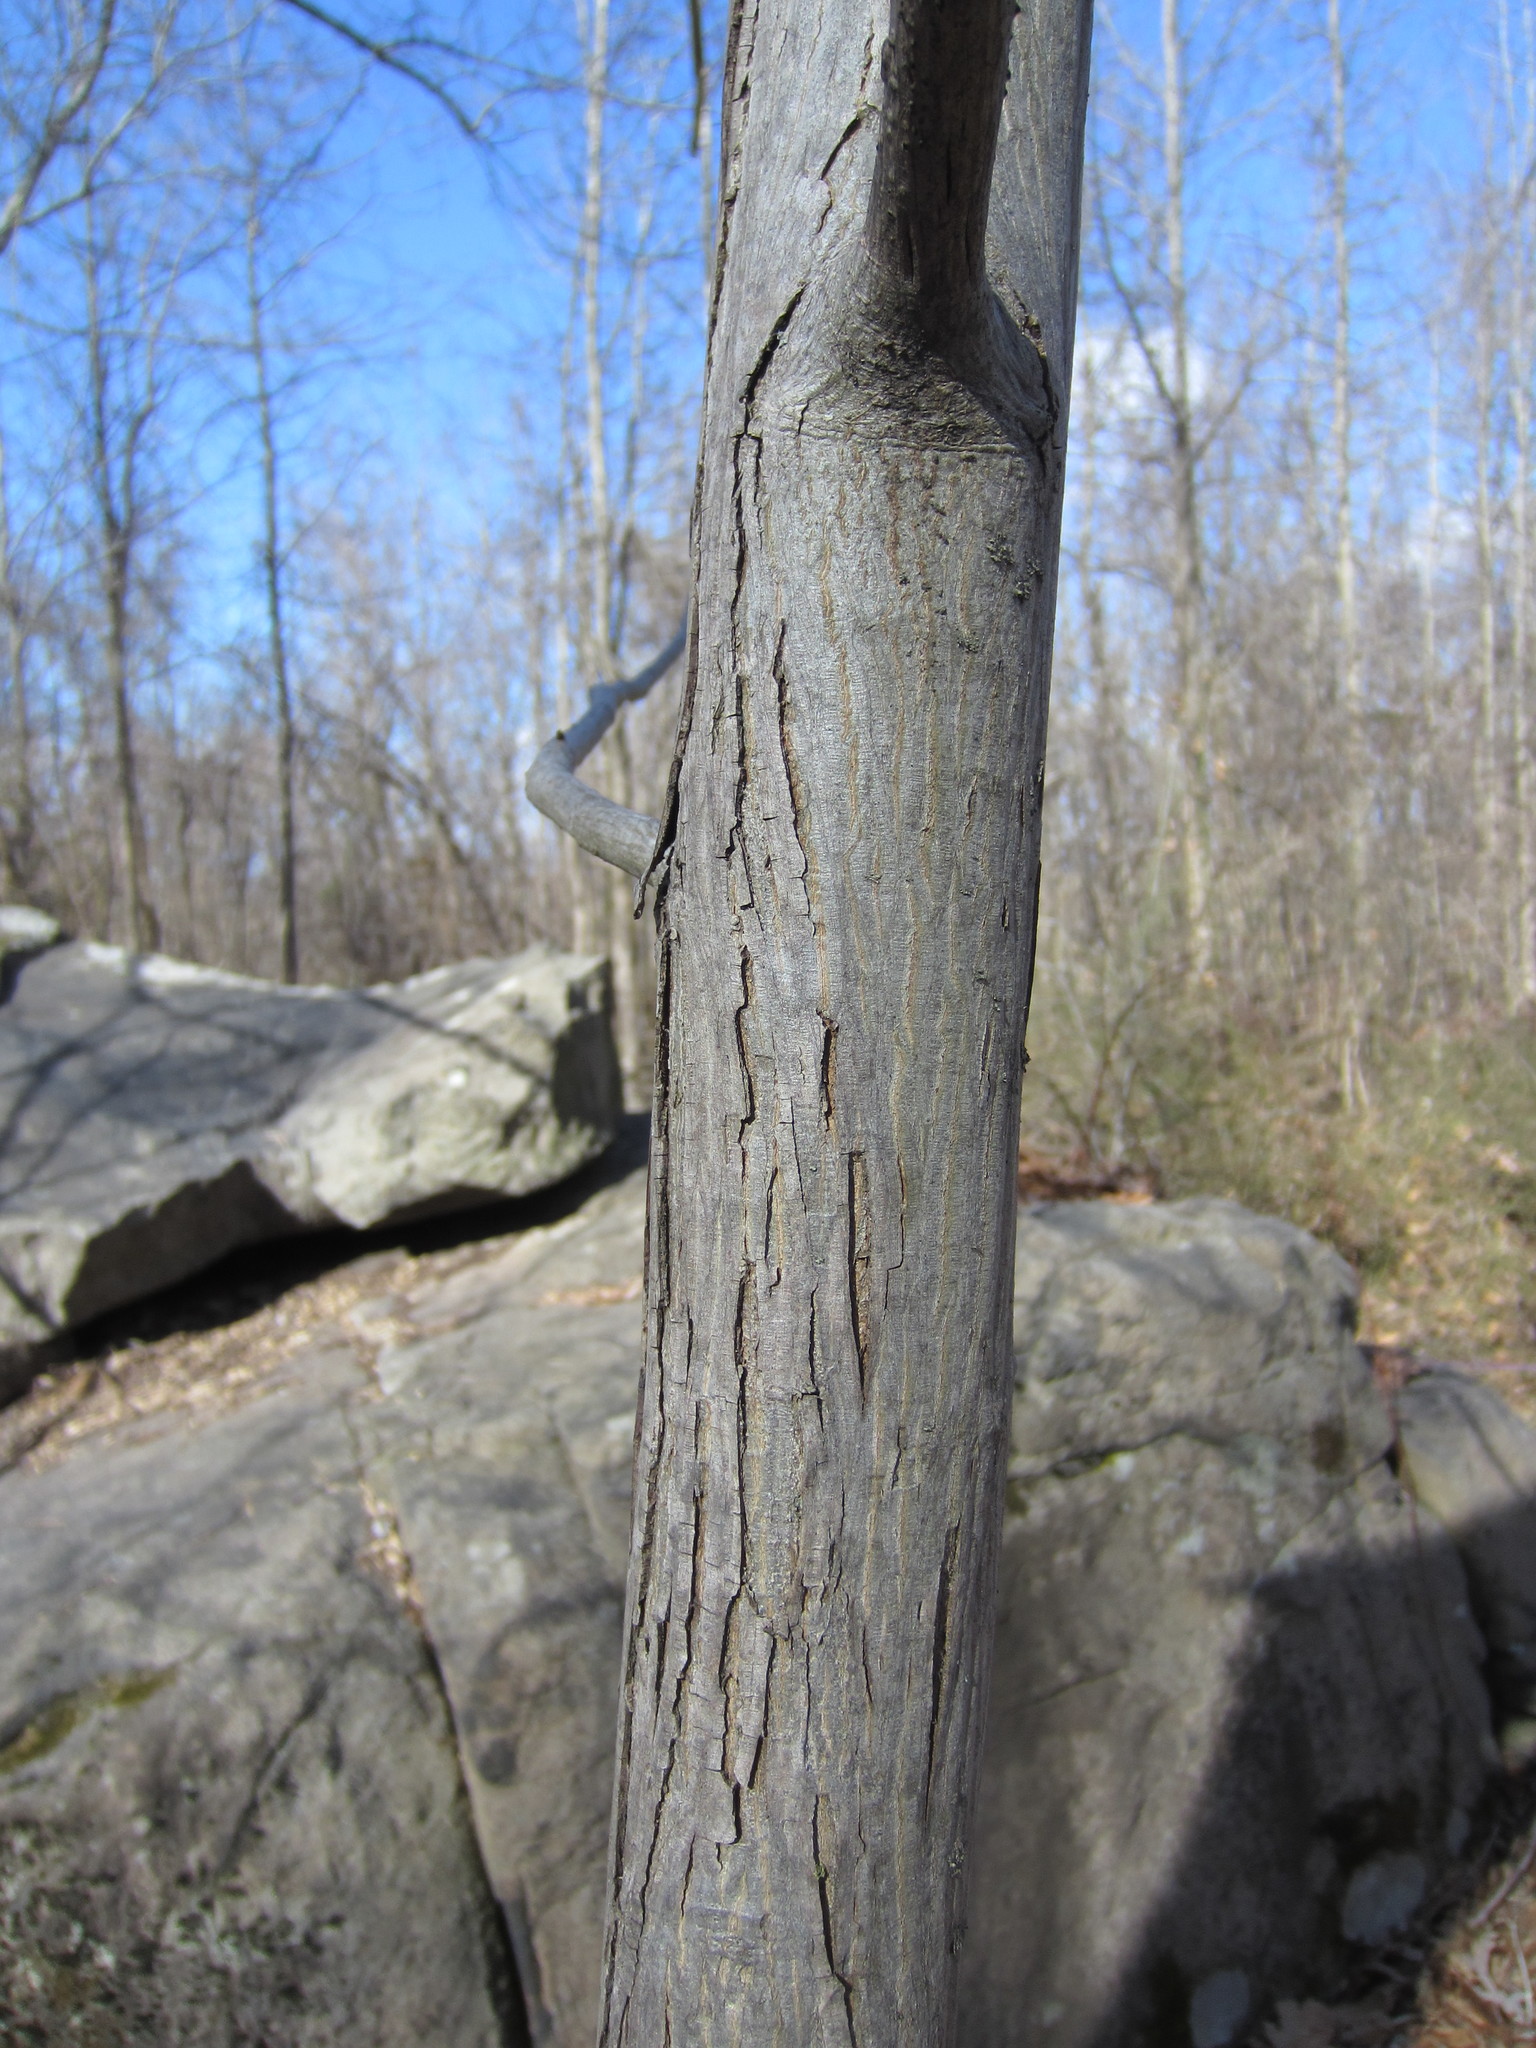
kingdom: Plantae
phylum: Tracheophyta
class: Magnoliopsida
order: Fagales
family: Juglandaceae
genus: Carya
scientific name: Carya ovata
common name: Shagbark hickory
